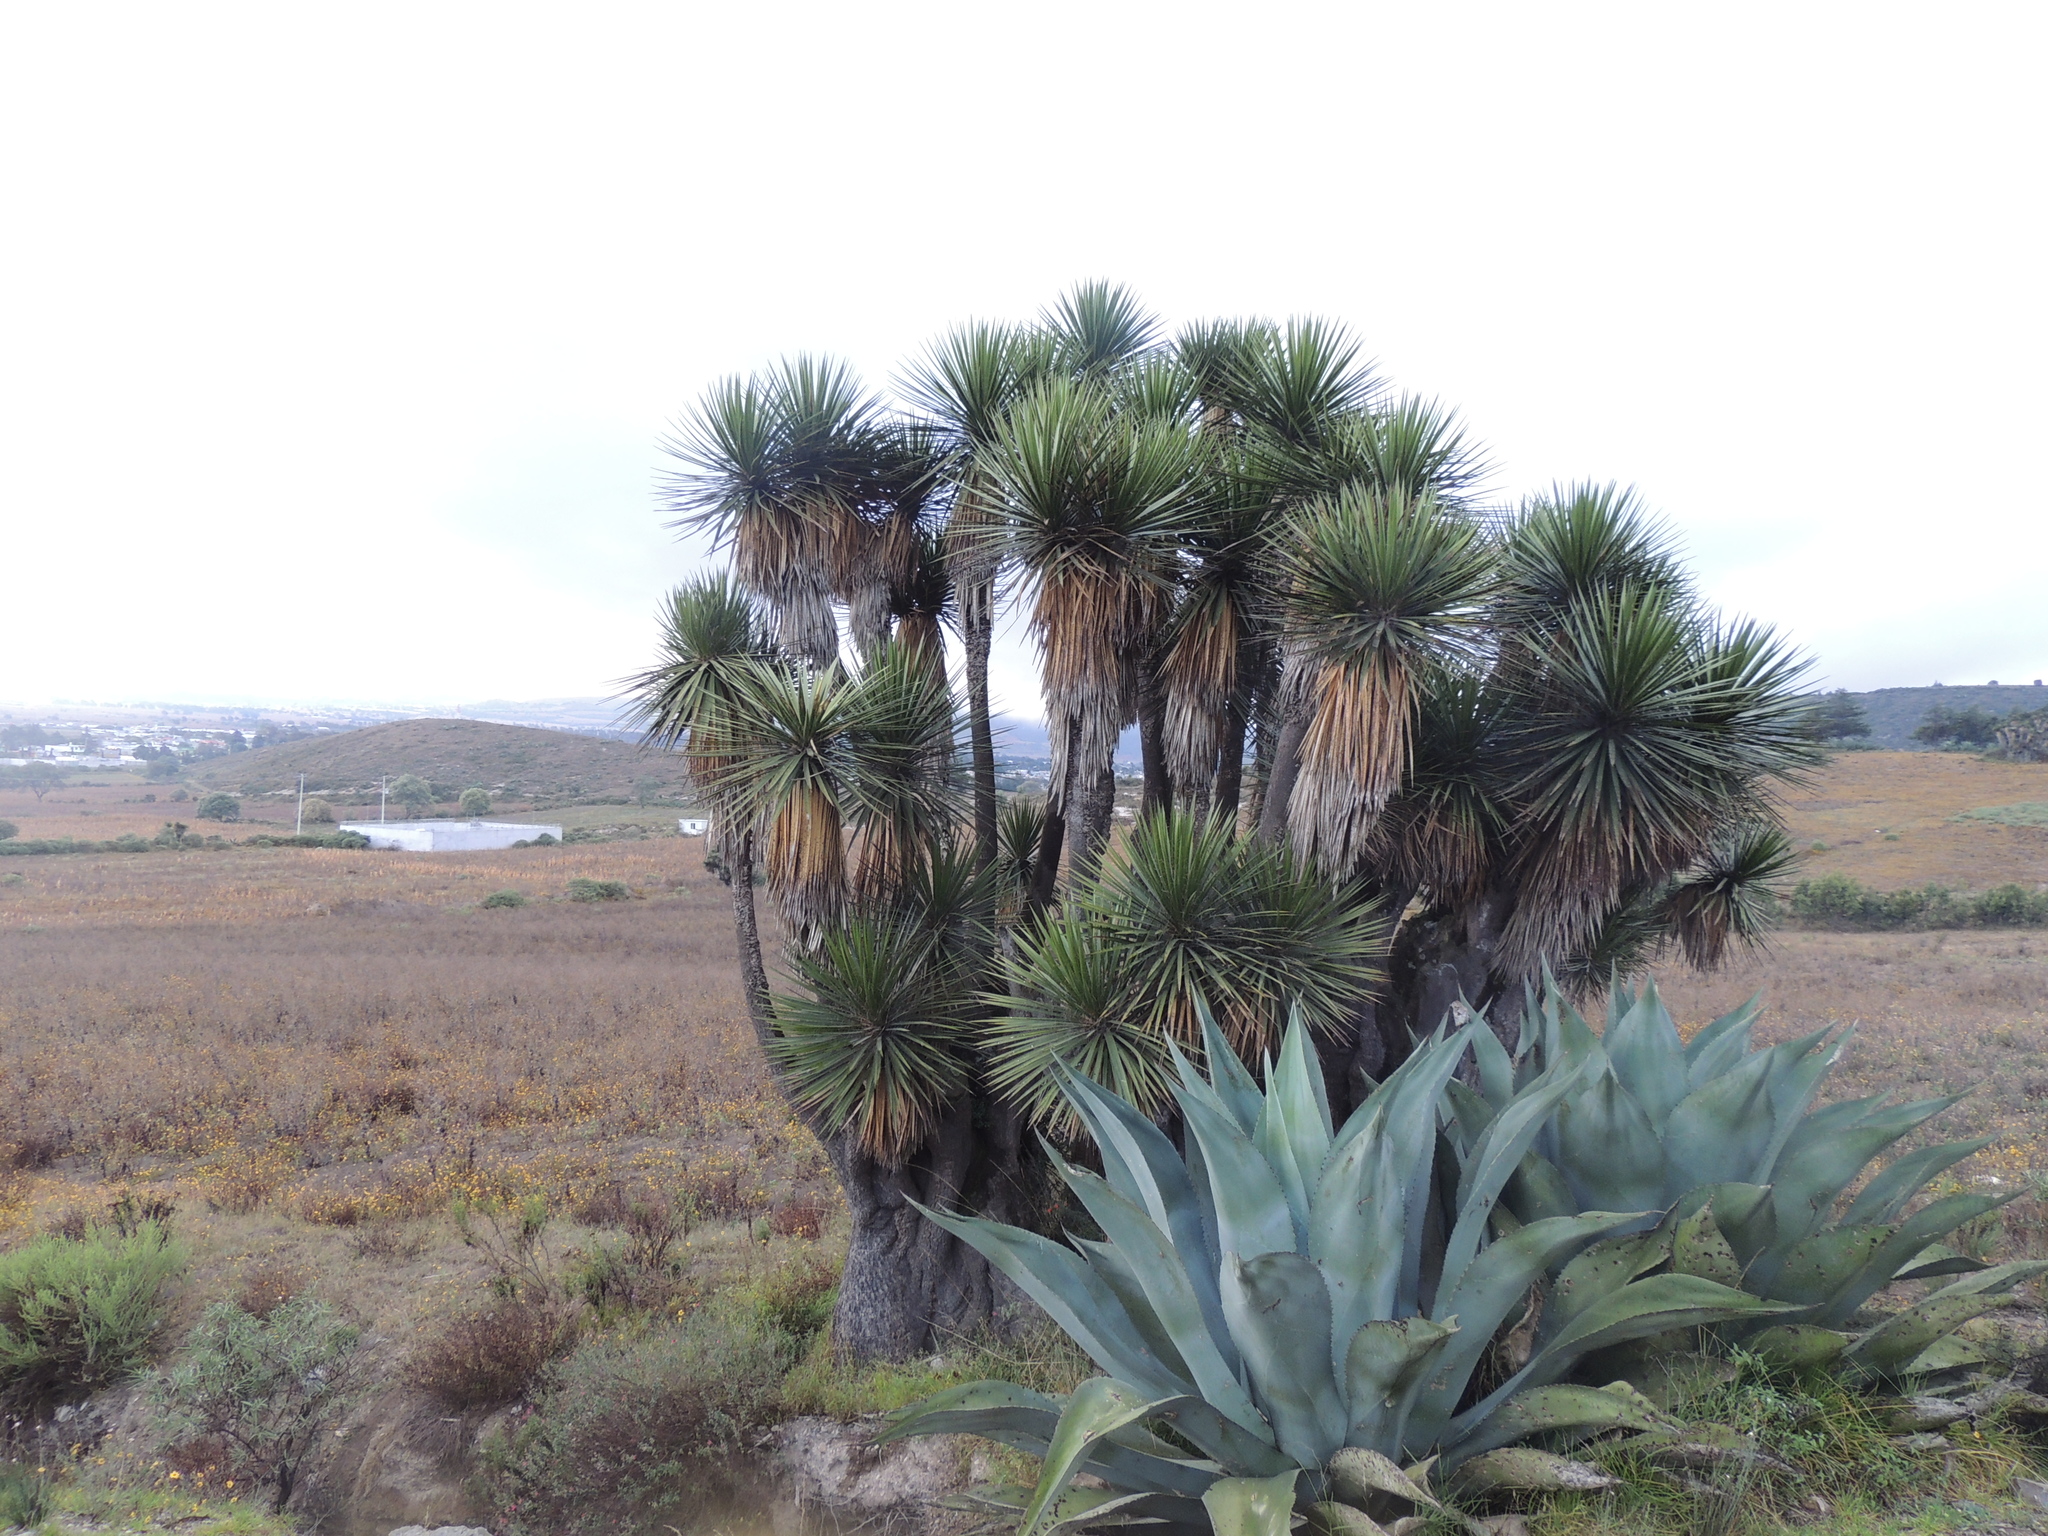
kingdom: Plantae
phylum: Tracheophyta
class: Liliopsida
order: Asparagales
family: Asparagaceae
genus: Agave
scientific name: Agave salmiana
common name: Pulque agave
